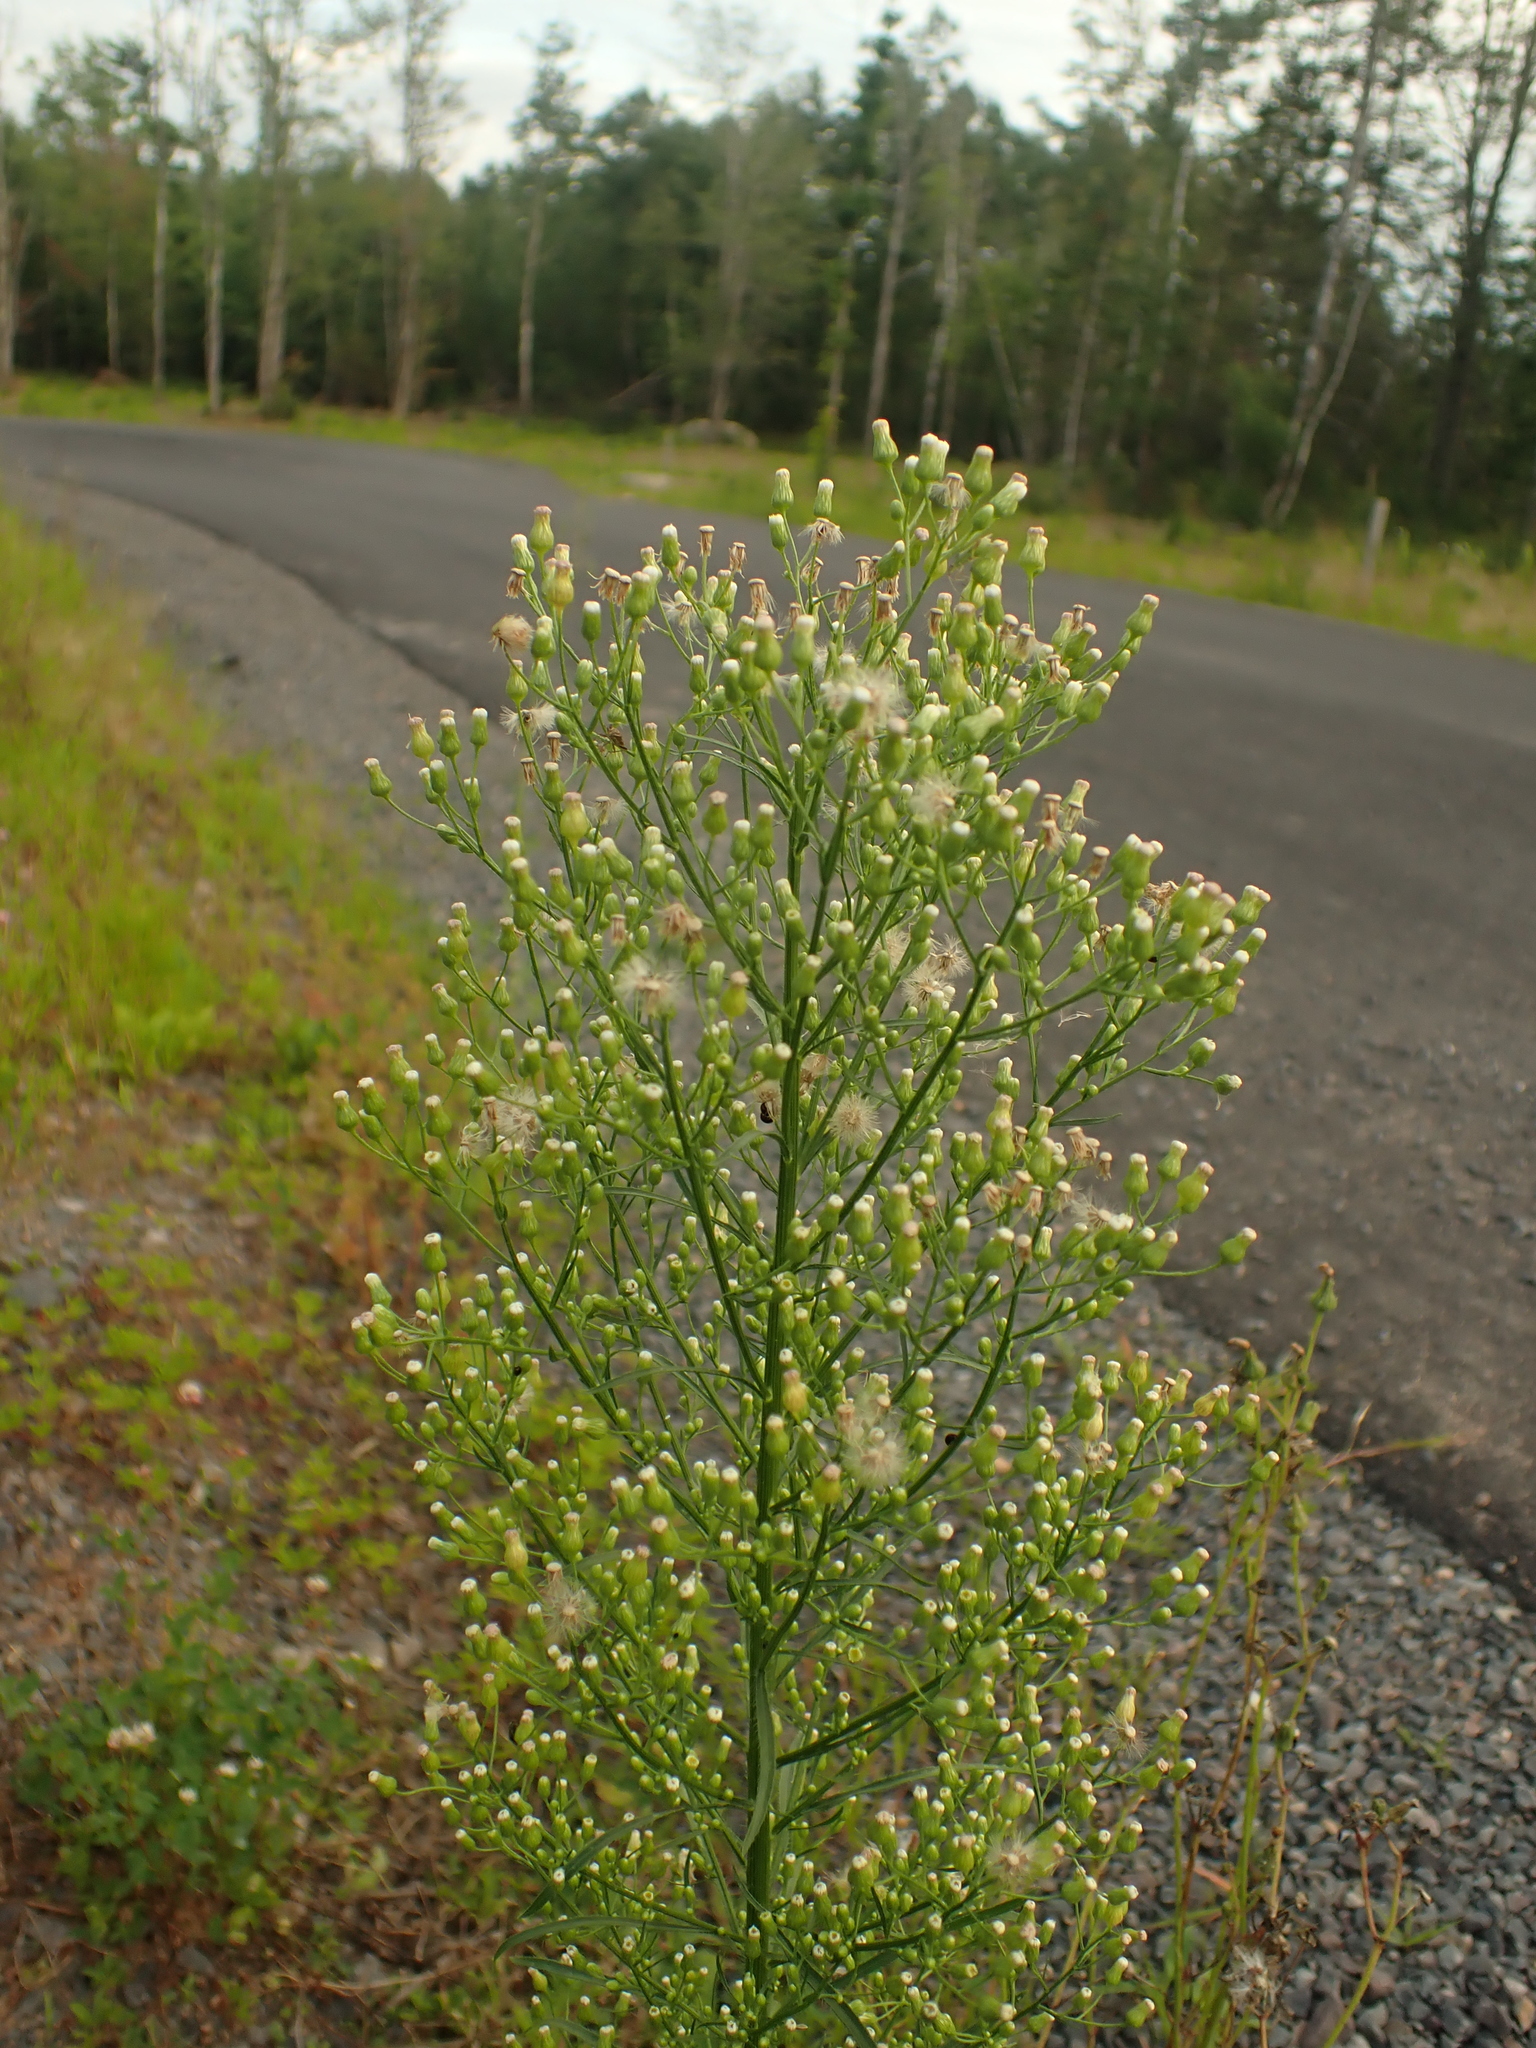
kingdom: Plantae
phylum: Tracheophyta
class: Magnoliopsida
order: Asterales
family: Asteraceae
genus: Erigeron
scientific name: Erigeron canadensis
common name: Canadian fleabane
